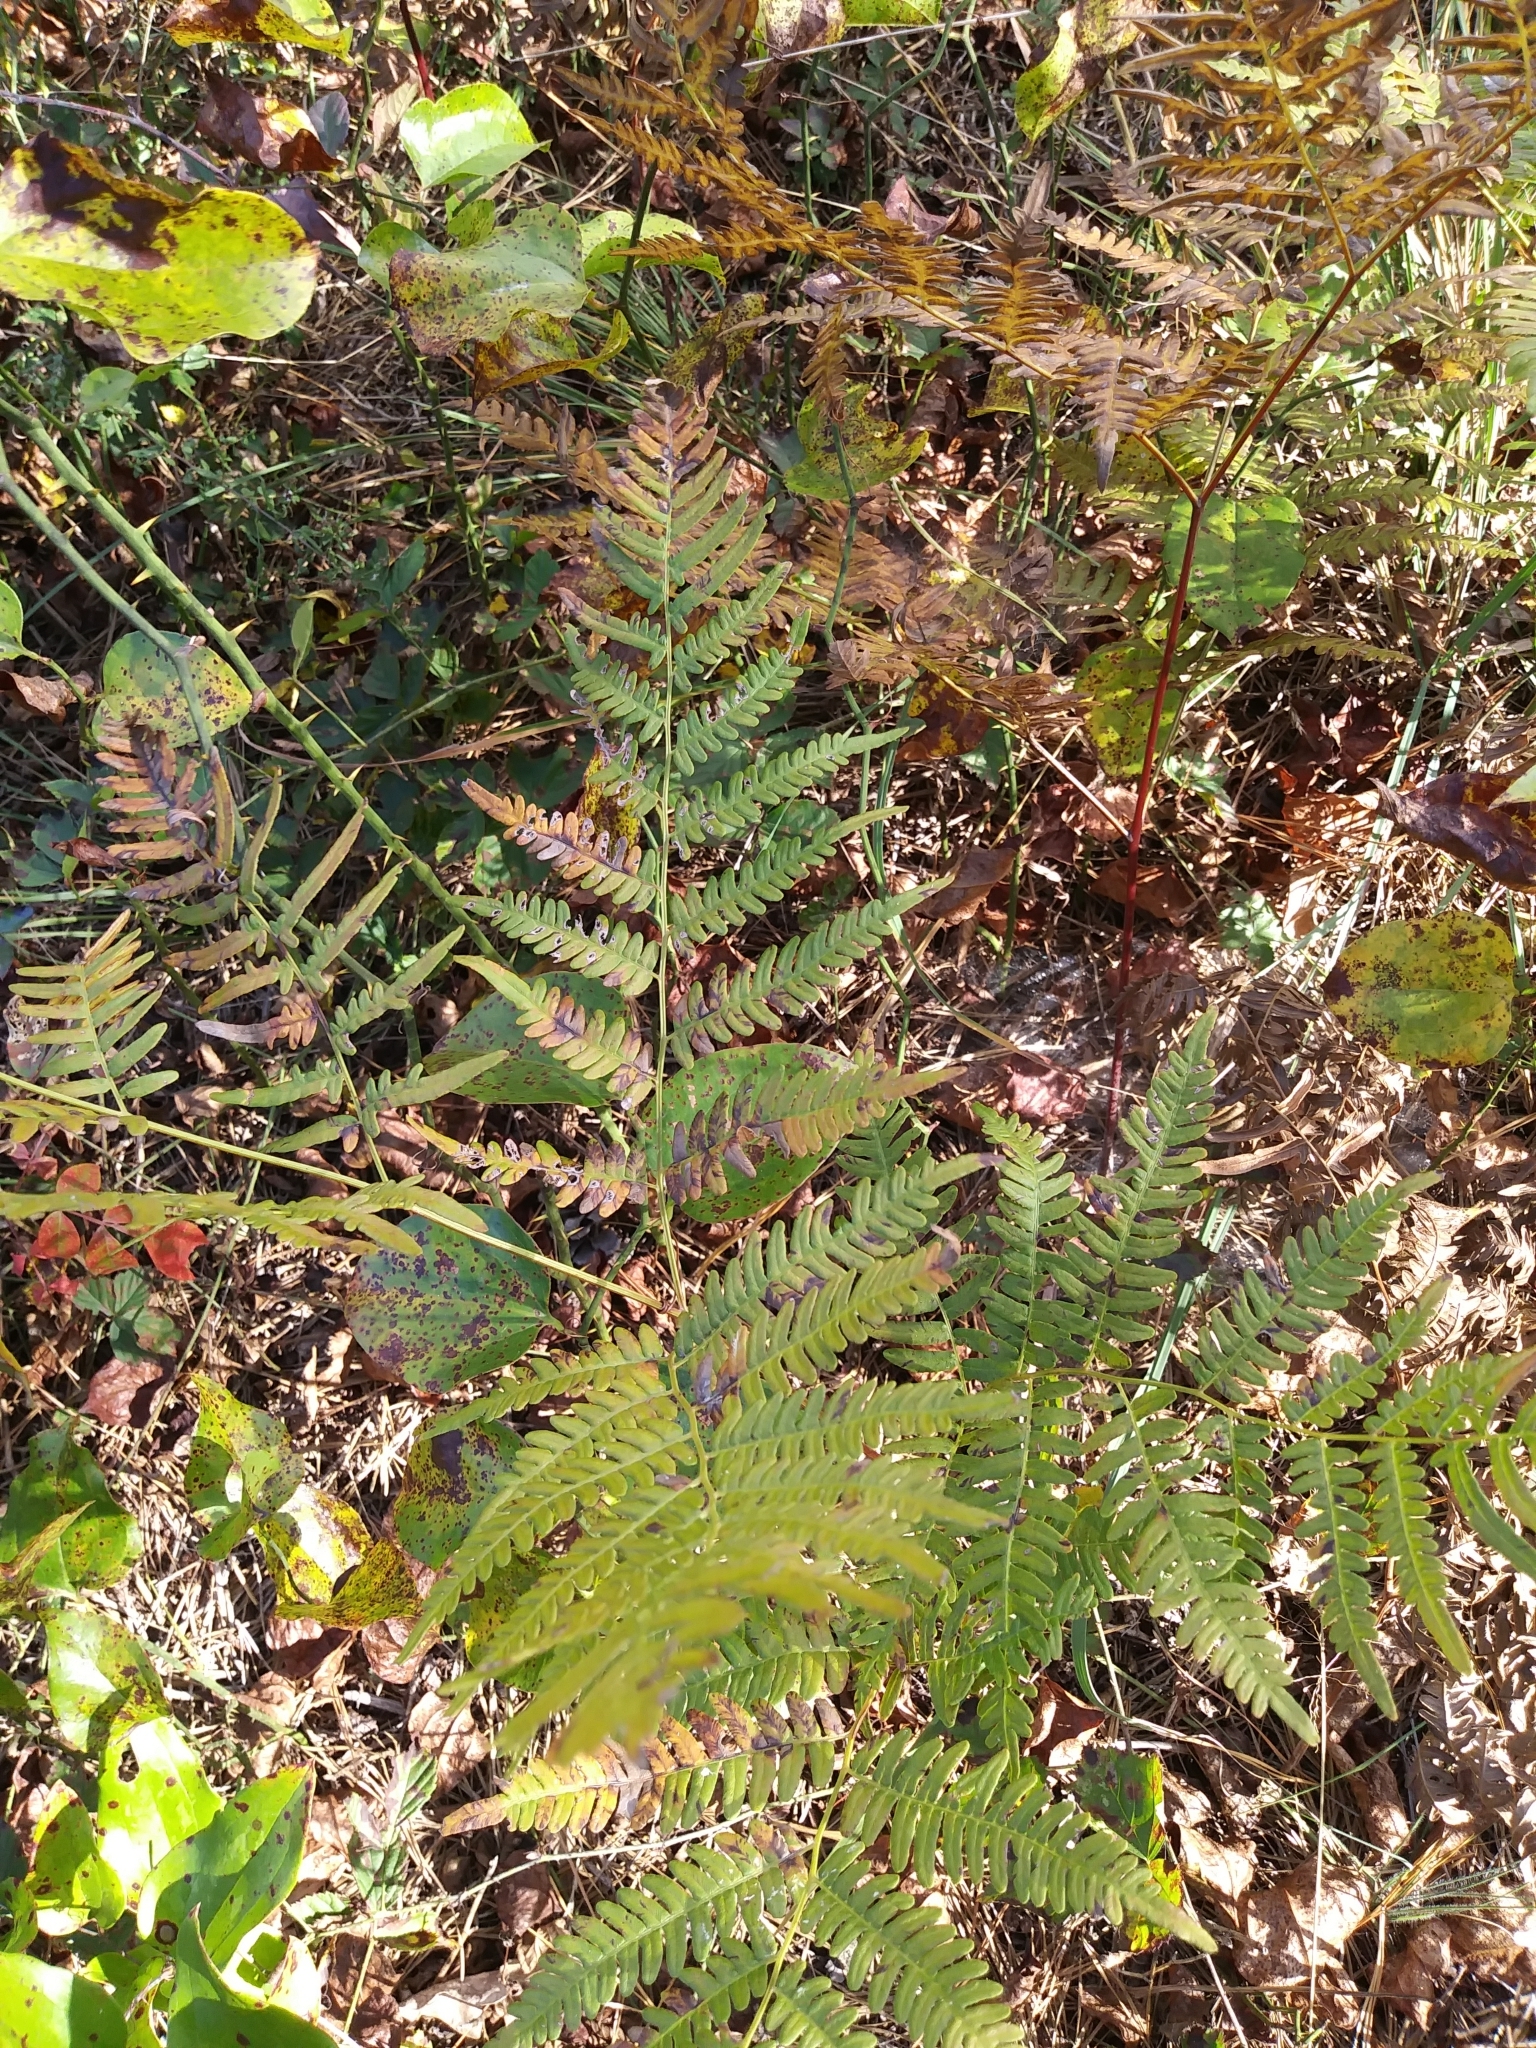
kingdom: Plantae
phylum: Tracheophyta
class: Polypodiopsida
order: Polypodiales
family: Dennstaedtiaceae
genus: Pteridium
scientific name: Pteridium aquilinum
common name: Bracken
